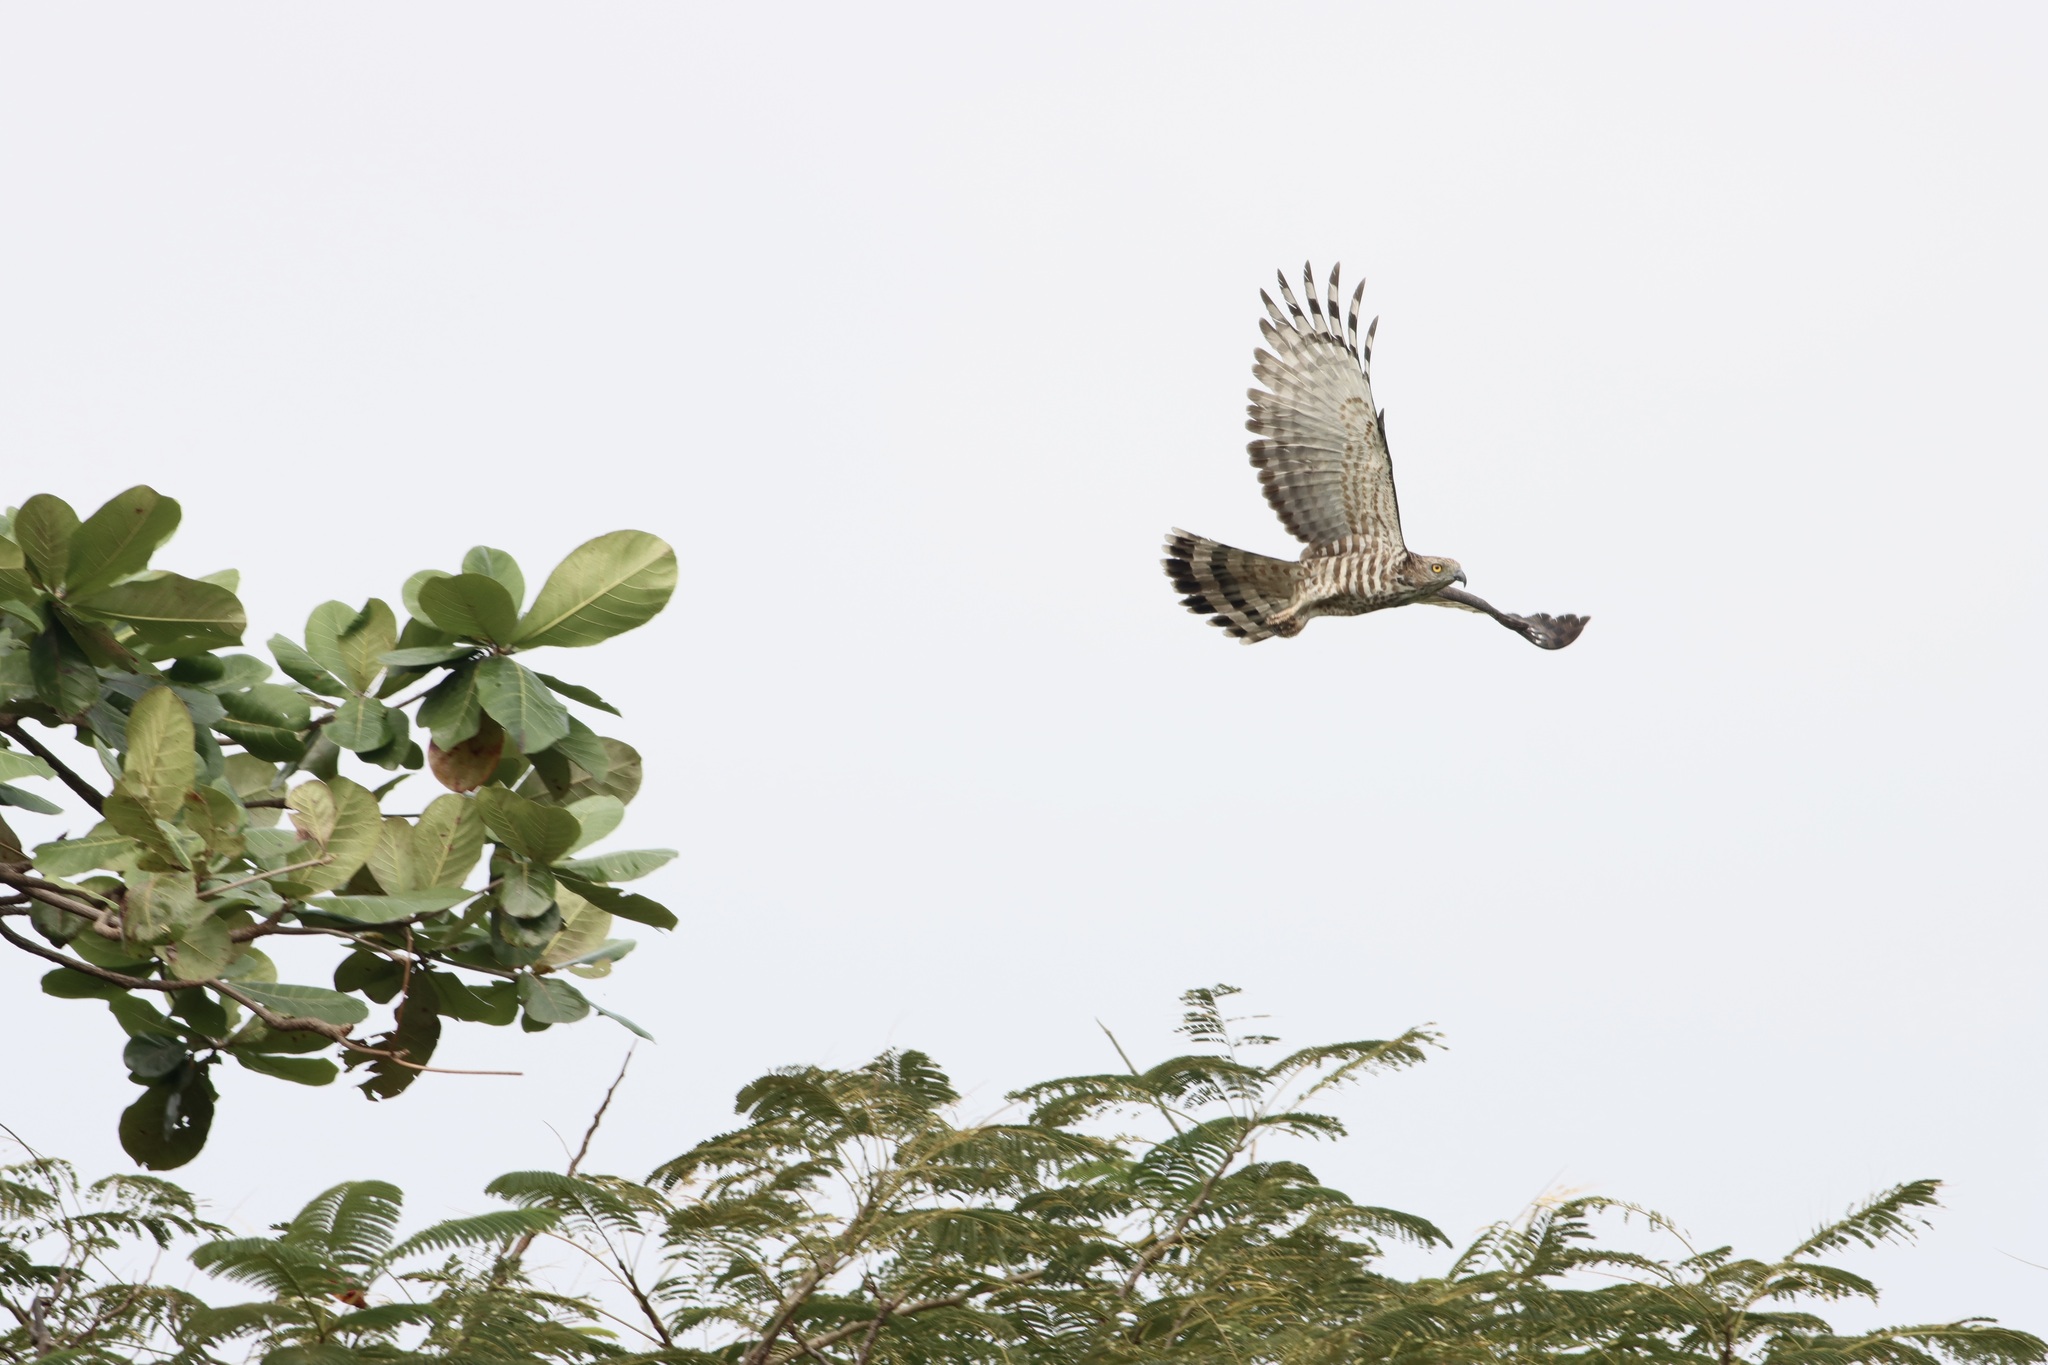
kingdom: Animalia
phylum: Chordata
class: Aves
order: Accipitriformes
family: Accipitridae
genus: Aviceda
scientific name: Aviceda jerdoni
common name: Jerdon's baza
